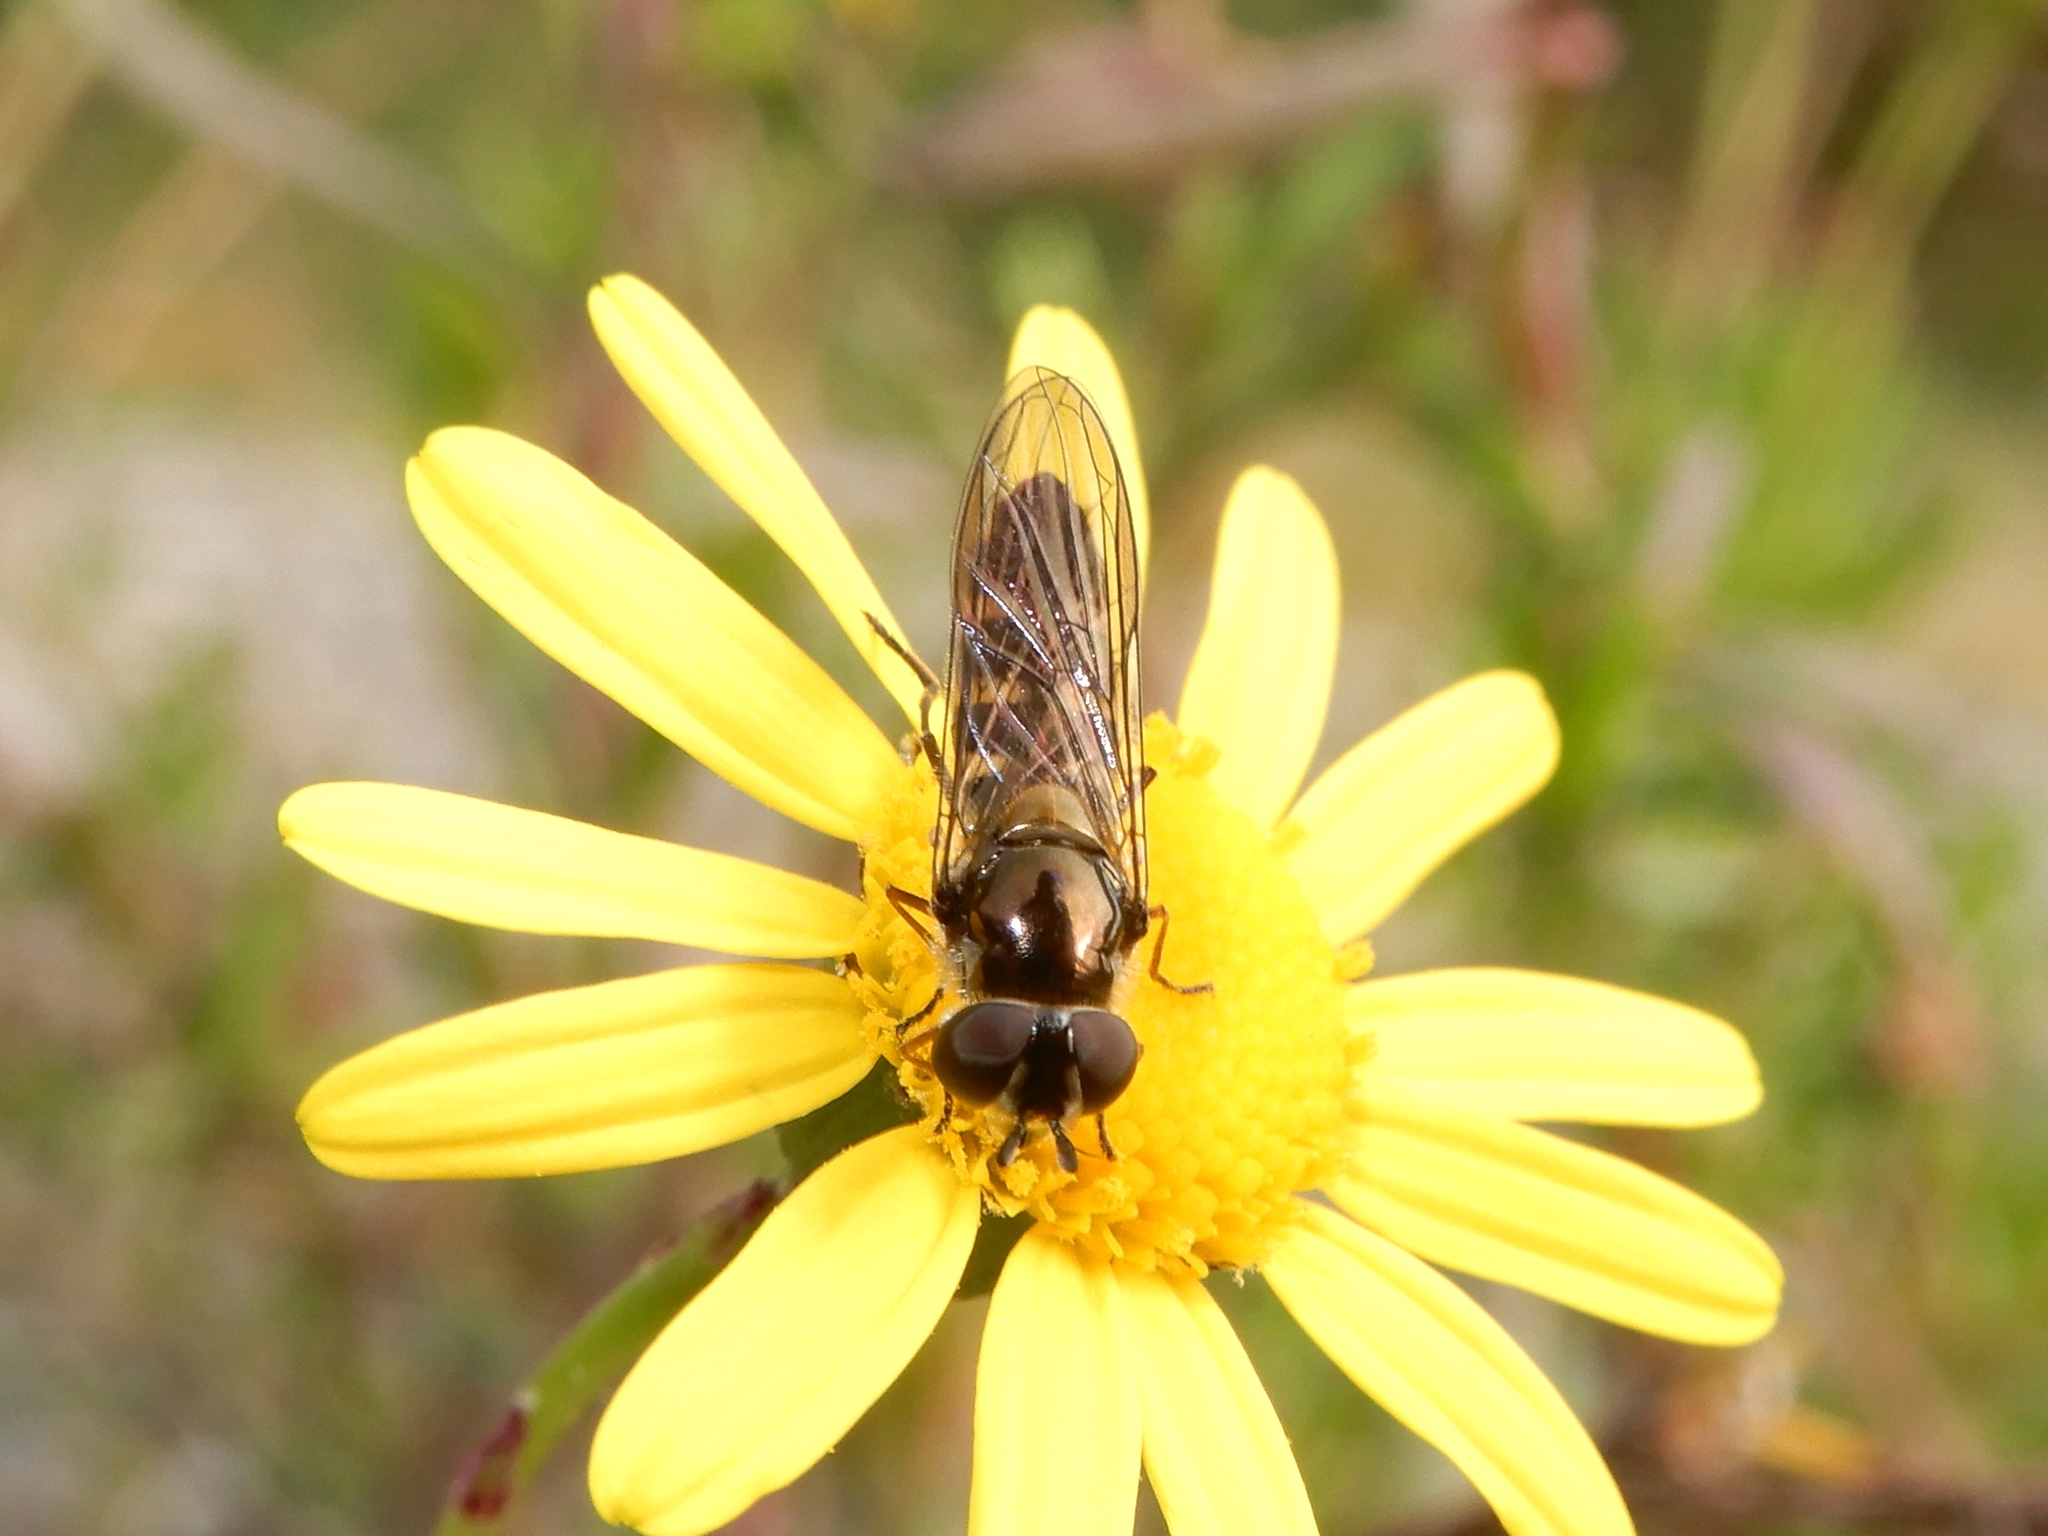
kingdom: Animalia
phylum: Arthropoda
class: Insecta
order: Diptera
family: Syrphidae
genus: Melangyna
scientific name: Melangyna novaezelandiae
